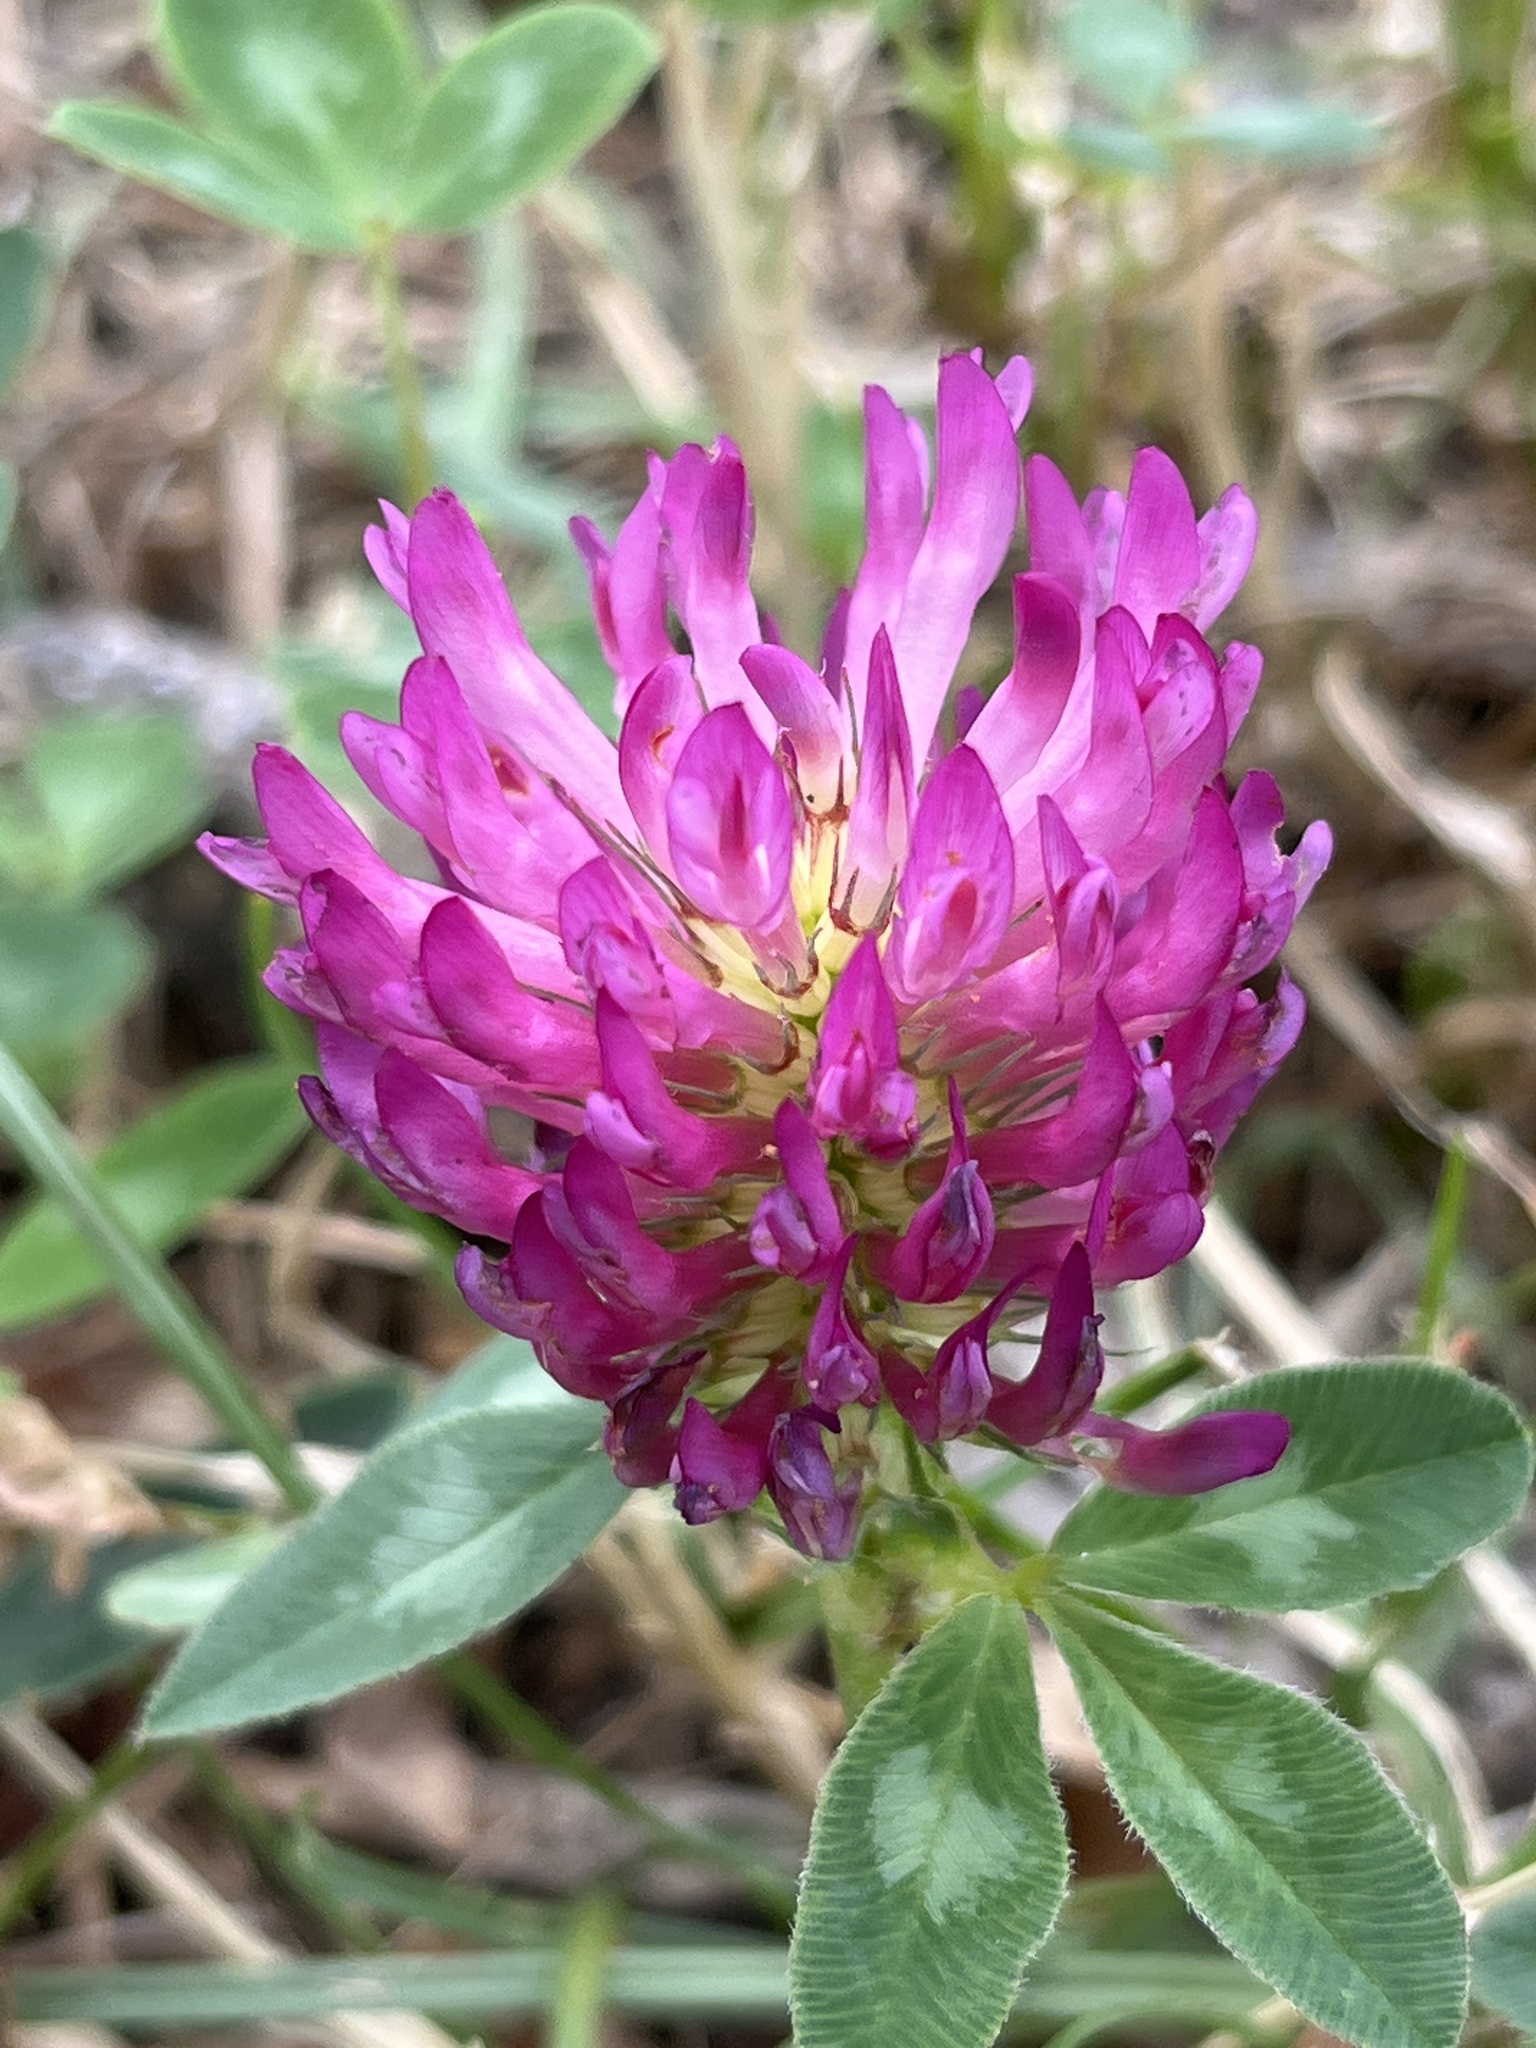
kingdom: Plantae
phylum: Tracheophyta
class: Magnoliopsida
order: Fabales
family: Fabaceae
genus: Trifolium
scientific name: Trifolium pratense
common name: Red clover
